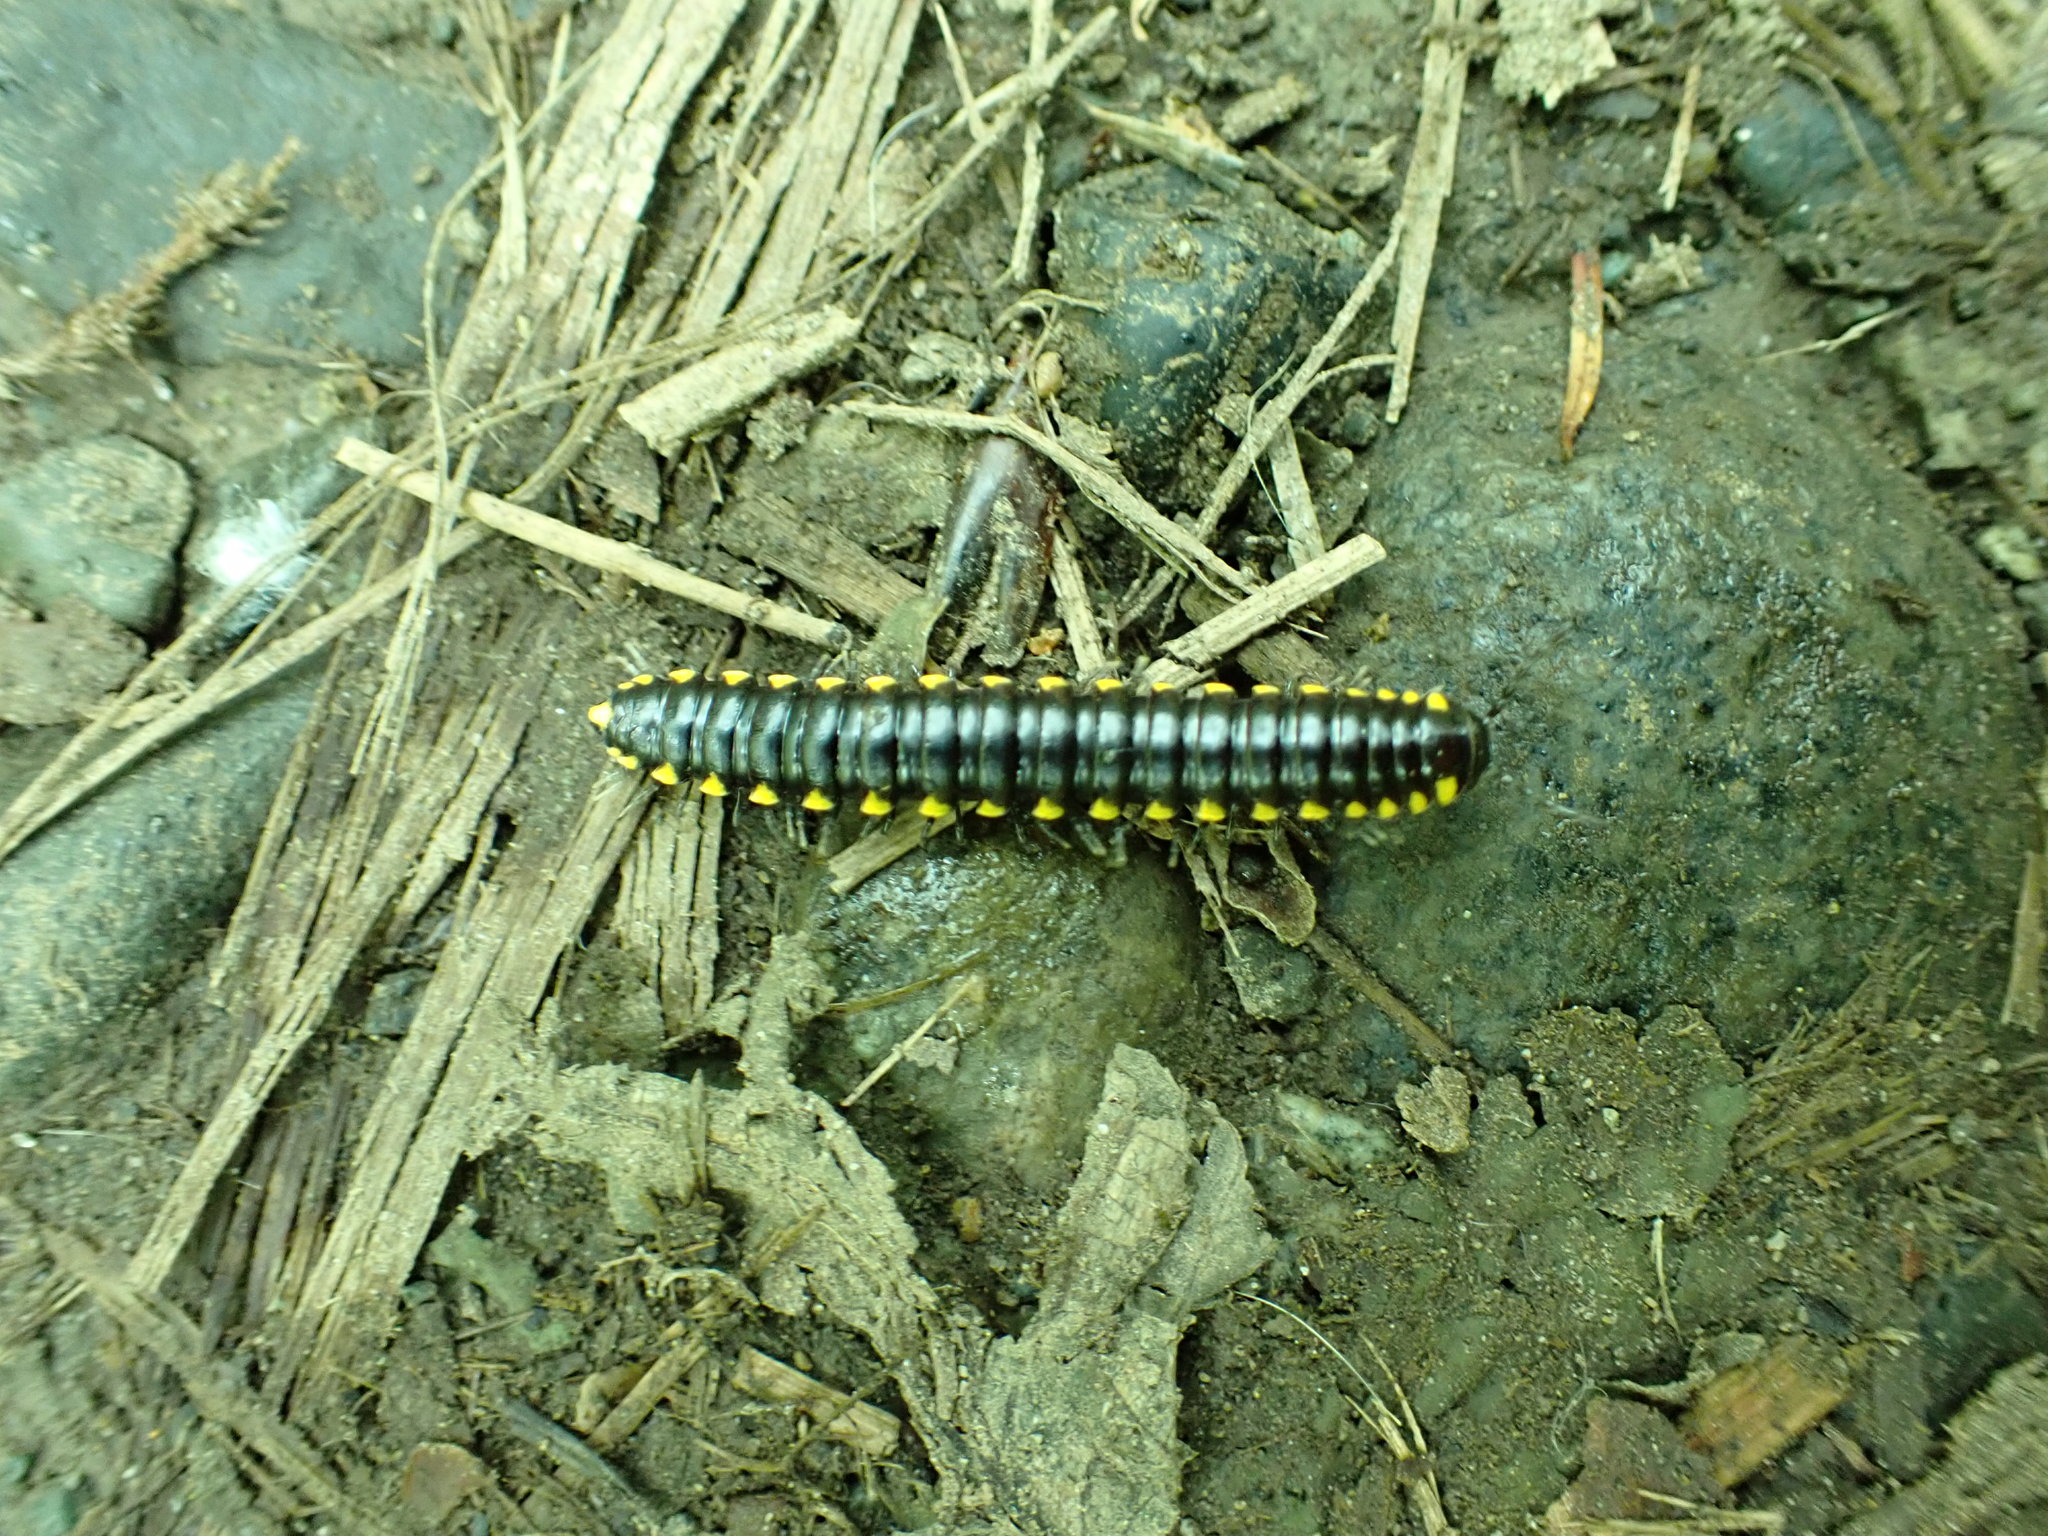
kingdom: Animalia
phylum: Arthropoda
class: Diplopoda
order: Polydesmida
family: Xystodesmidae
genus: Harpaphe
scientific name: Harpaphe haydeniana
